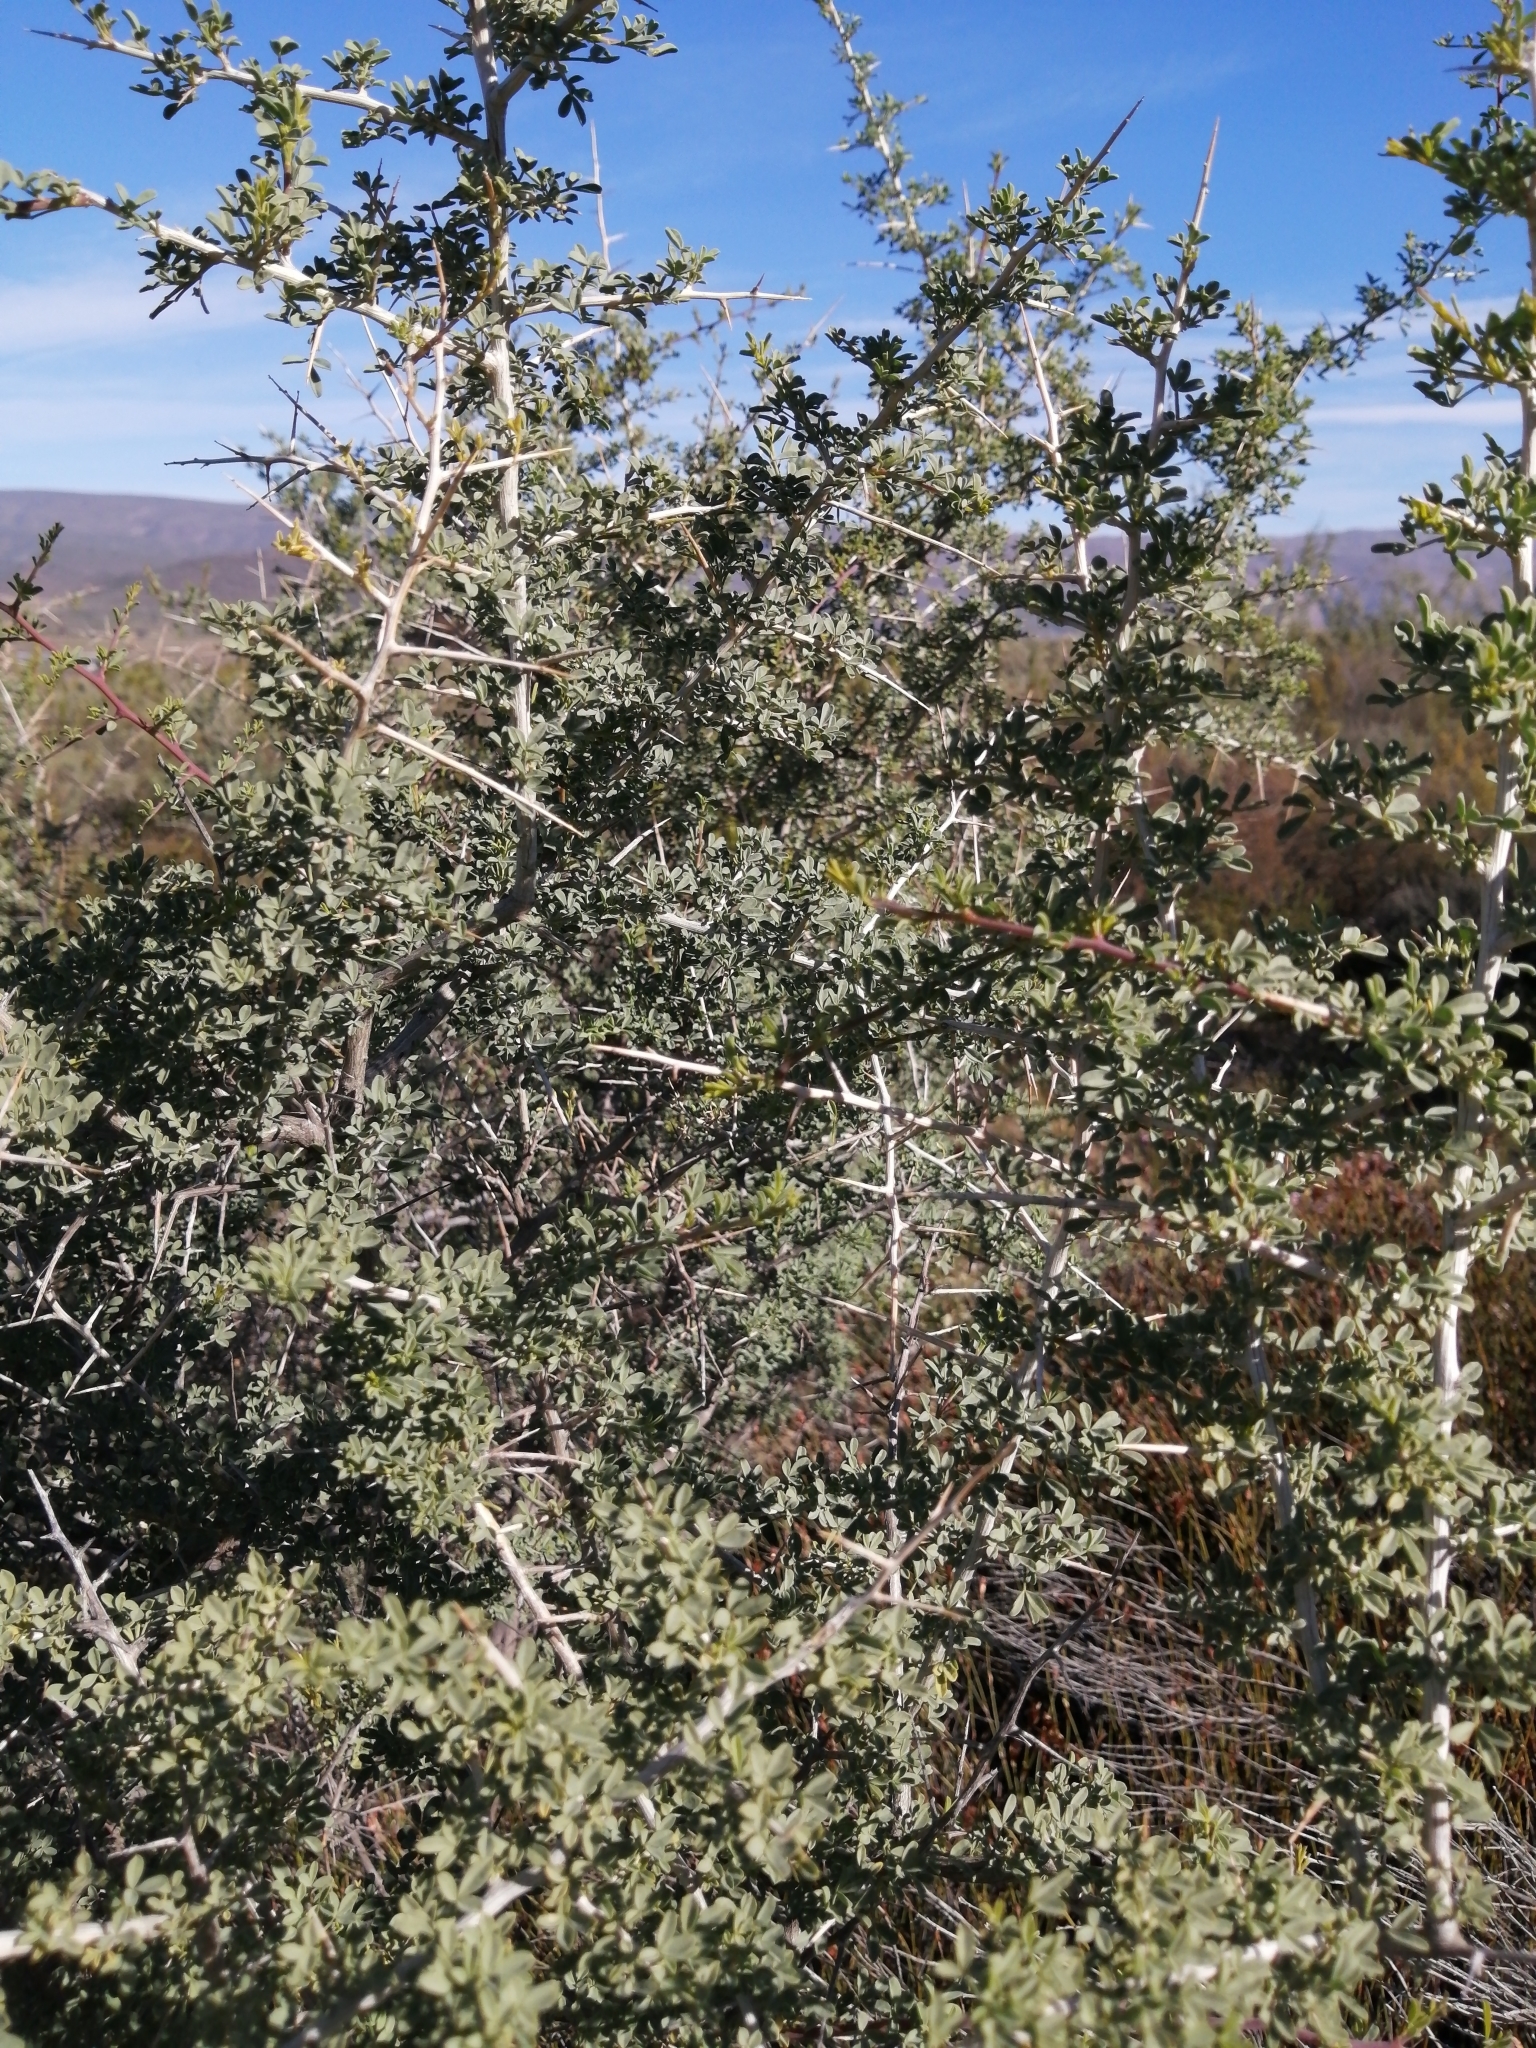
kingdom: Plantae
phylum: Tracheophyta
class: Magnoliopsida
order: Fabales
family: Fabaceae
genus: Wiborgia
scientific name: Wiborgia mucronata
